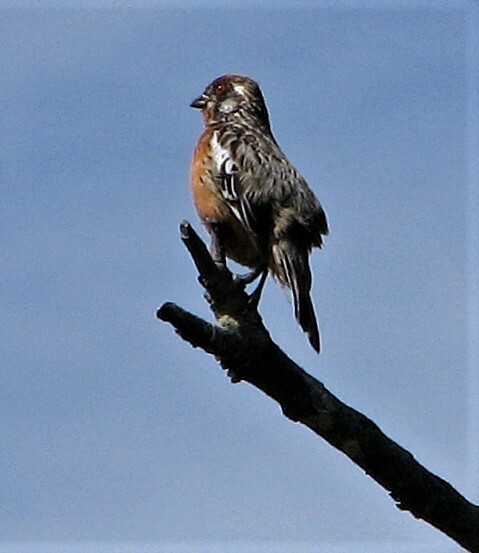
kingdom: Animalia
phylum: Chordata
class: Aves
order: Passeriformes
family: Cotingidae
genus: Phytotoma
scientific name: Phytotoma rara
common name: Rufous-tailed plantcutter
